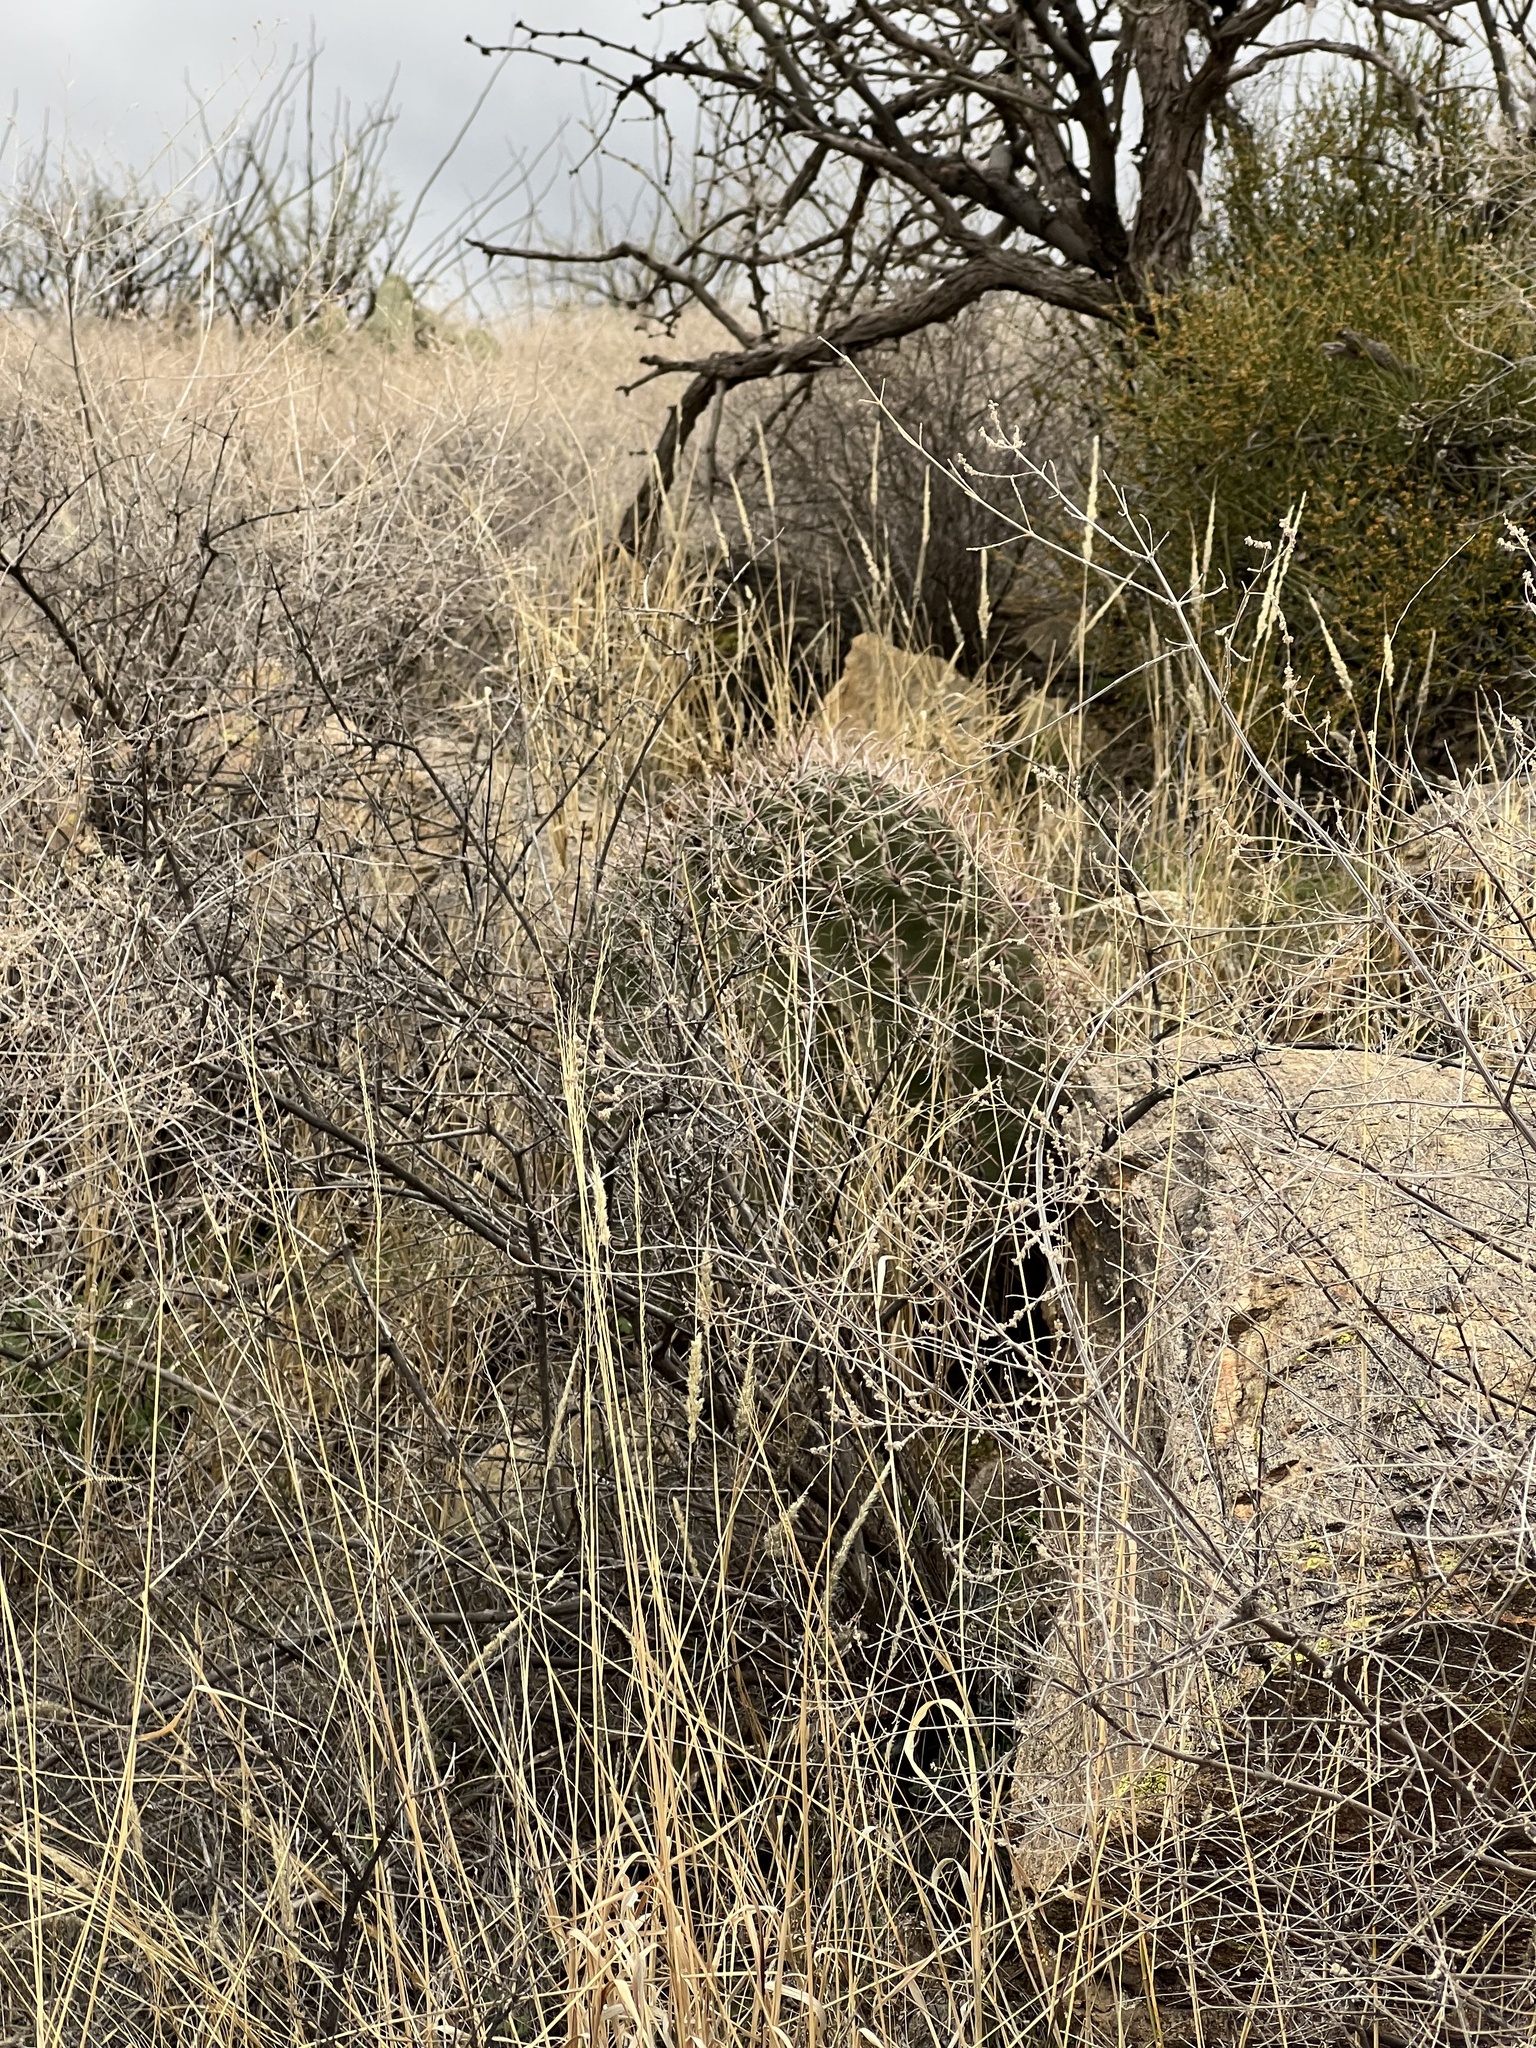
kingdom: Plantae
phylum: Tracheophyta
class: Magnoliopsida
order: Caryophyllales
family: Cactaceae
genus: Ferocactus
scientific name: Ferocactus wislizeni
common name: Candy barrel cactus
